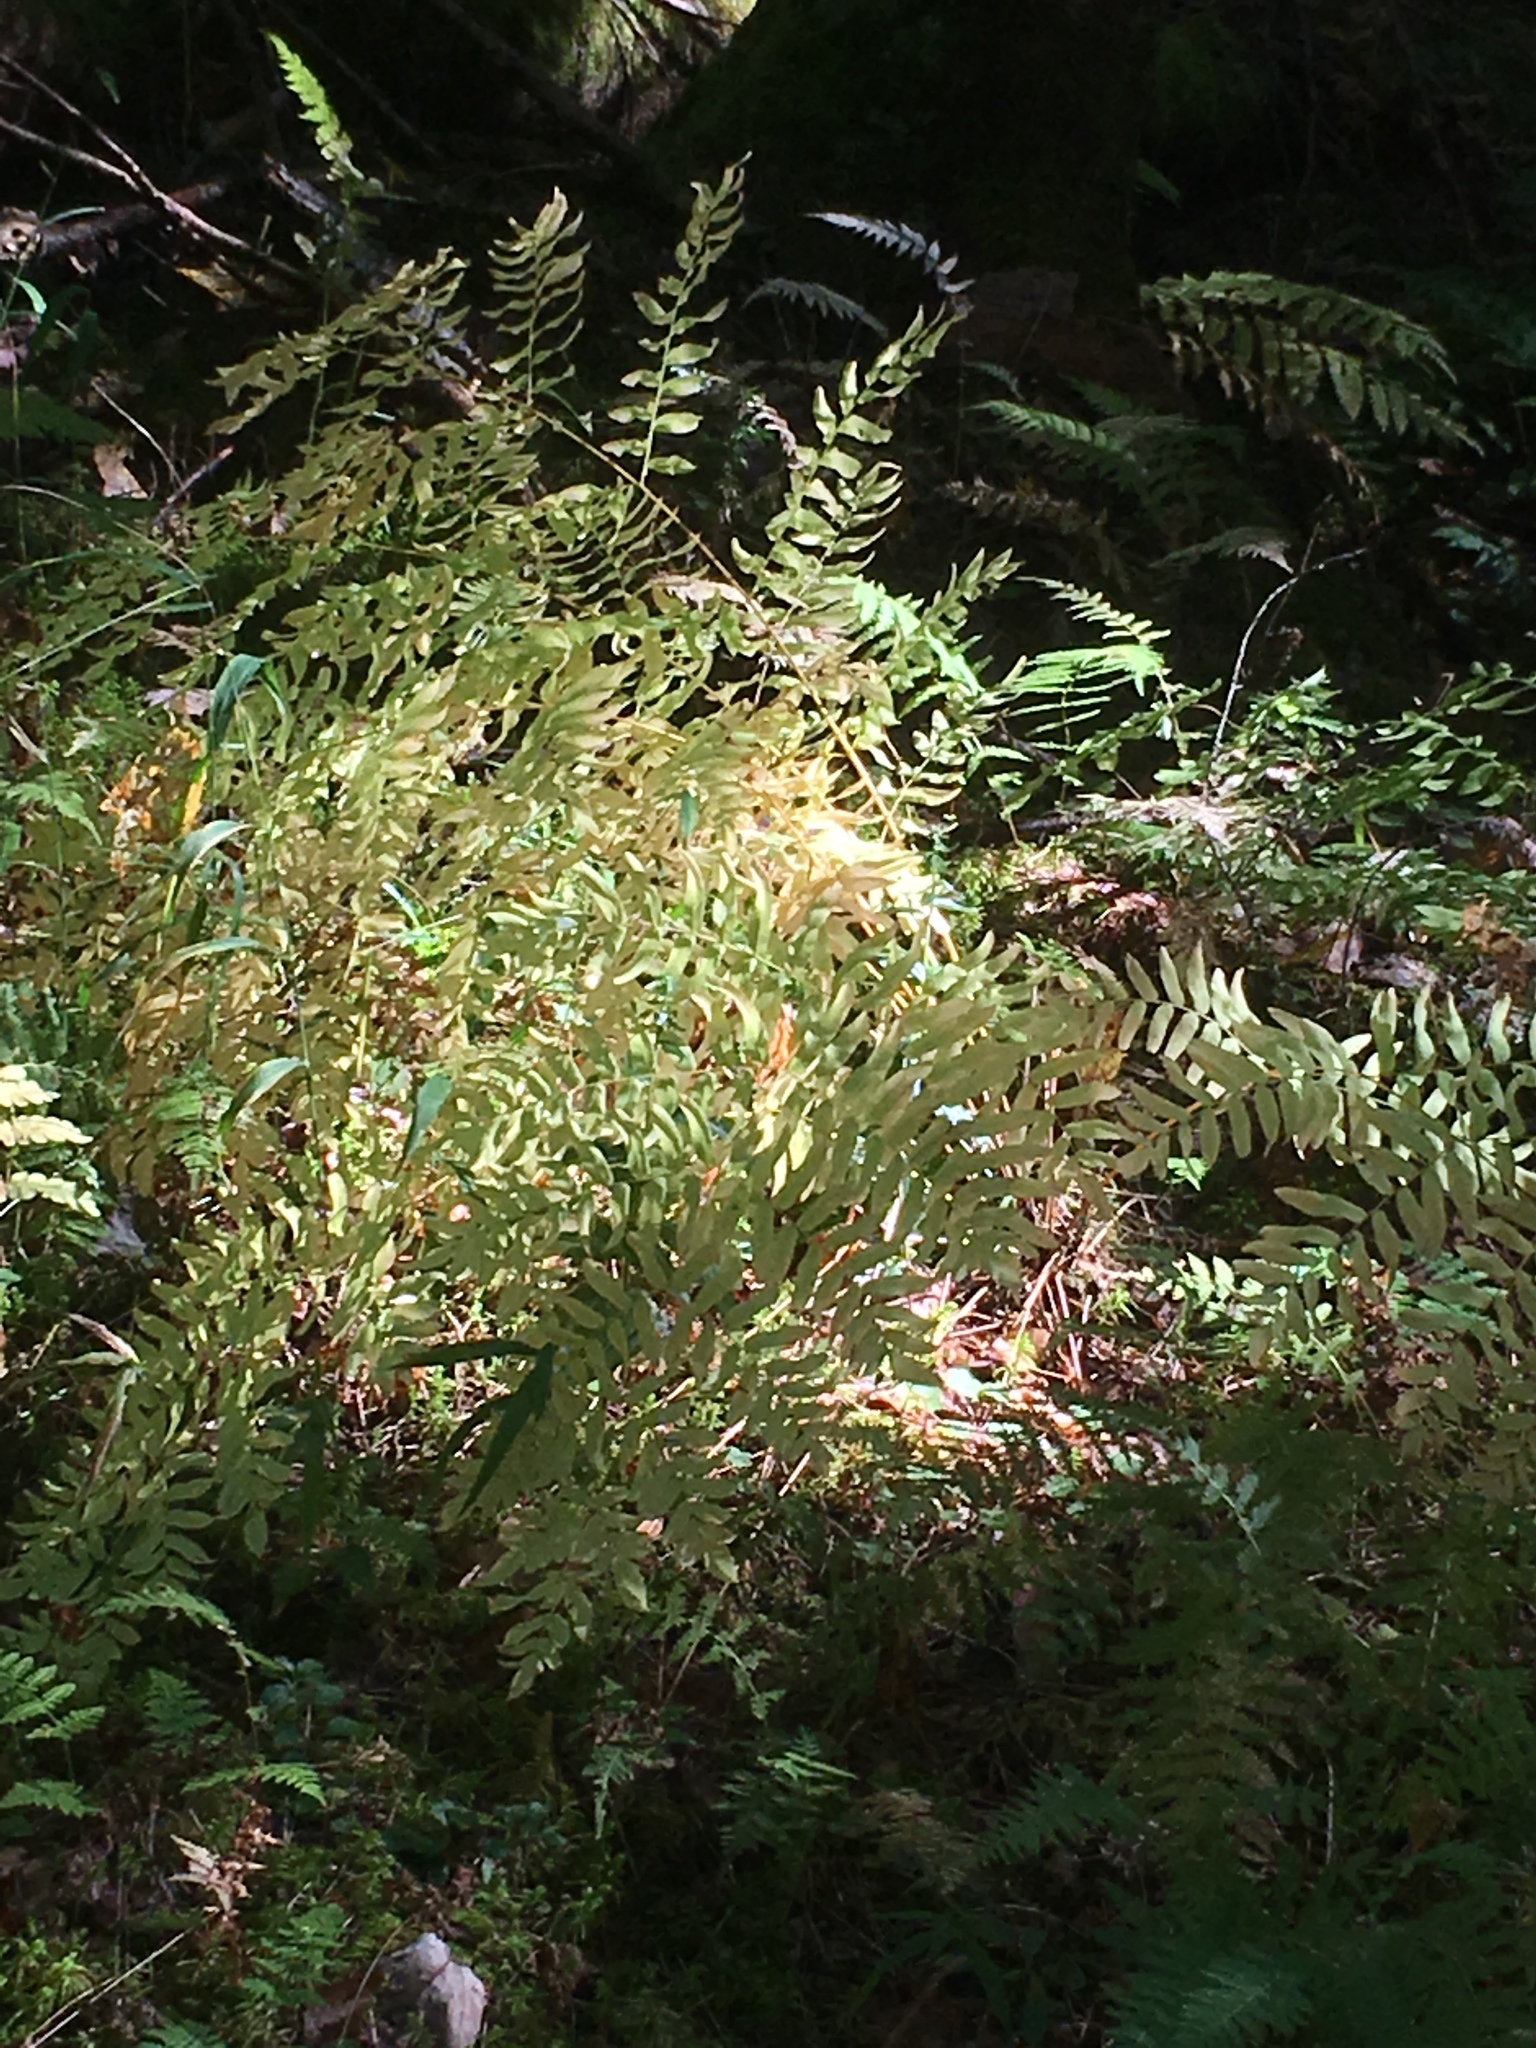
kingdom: Plantae
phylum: Tracheophyta
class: Polypodiopsida
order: Osmundales
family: Osmundaceae
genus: Osmunda
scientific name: Osmunda spectabilis
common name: American royal fern
